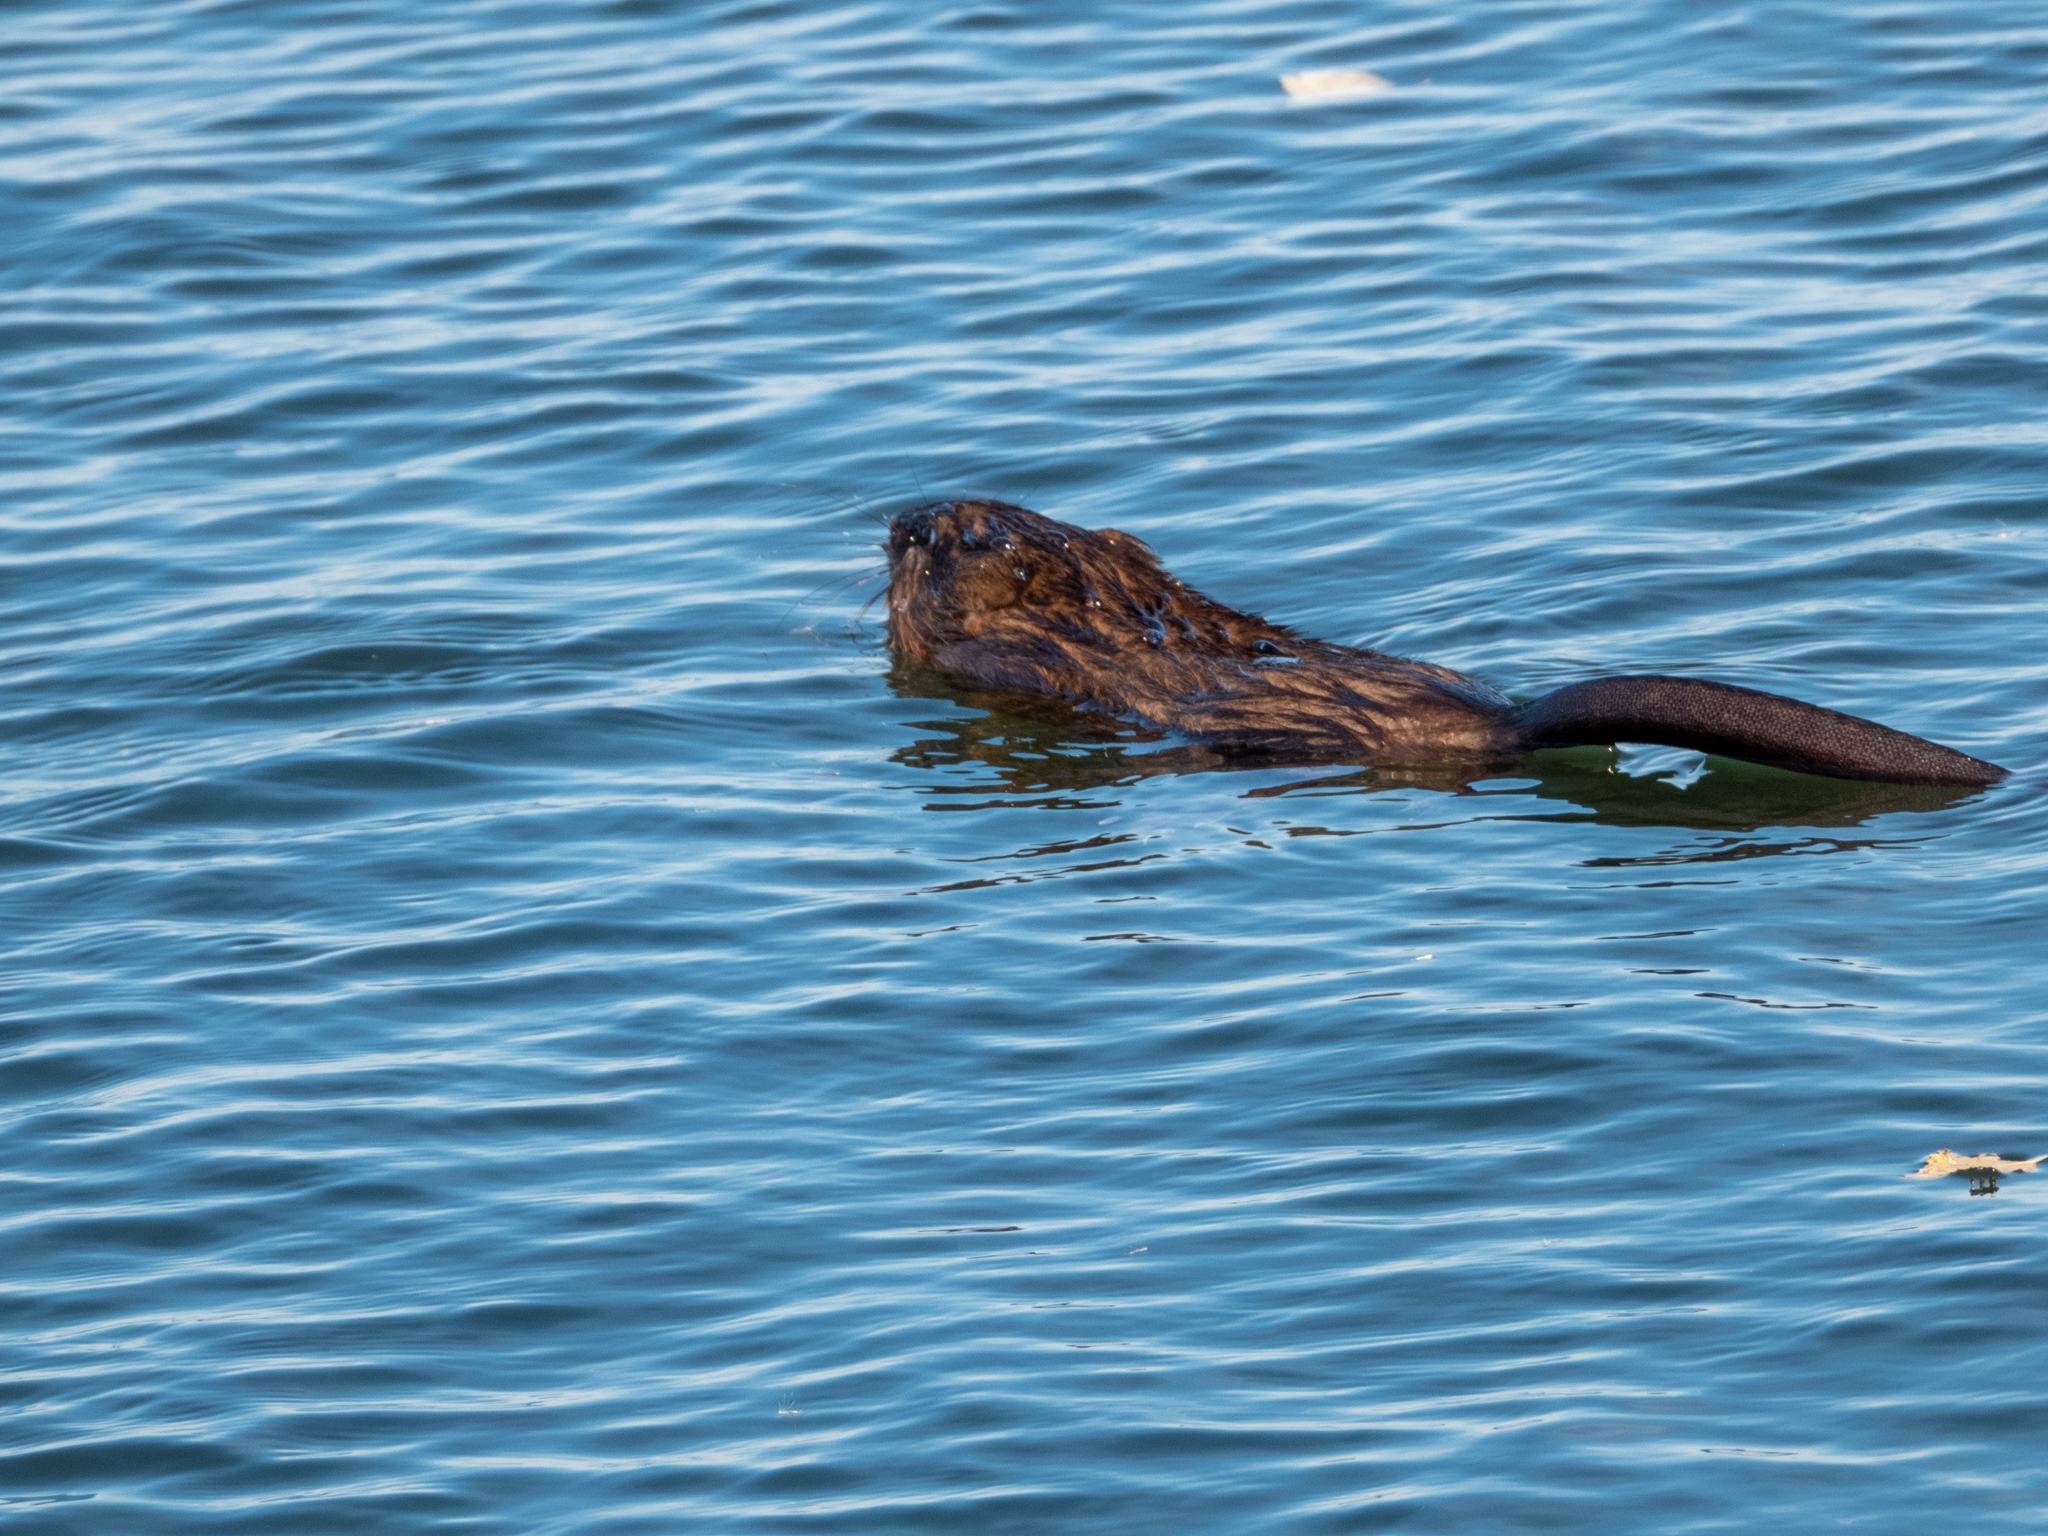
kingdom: Animalia
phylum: Chordata
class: Mammalia
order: Rodentia
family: Cricetidae
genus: Ondatra
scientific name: Ondatra zibethicus
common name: Muskrat
